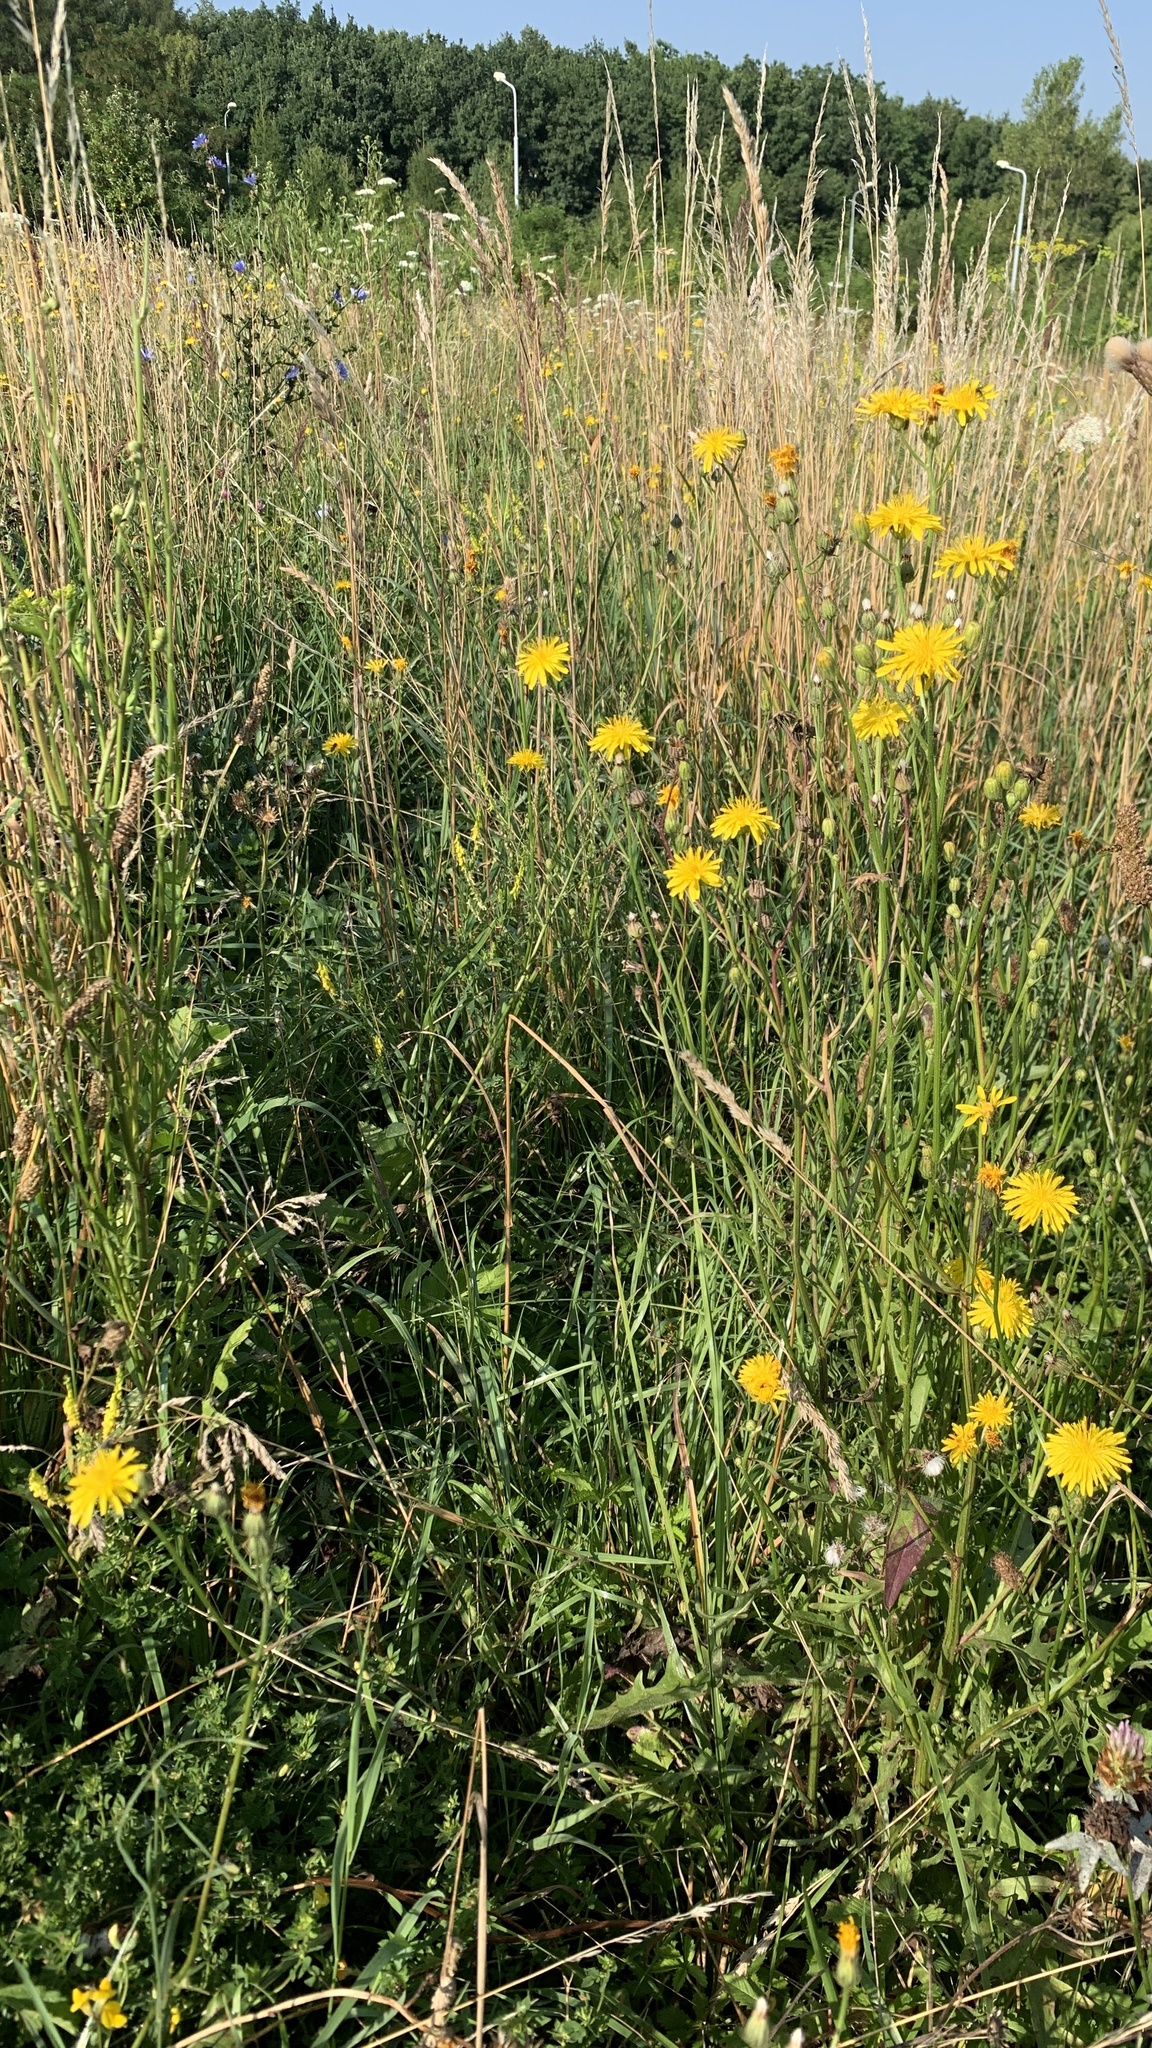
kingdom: Plantae
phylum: Tracheophyta
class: Magnoliopsida
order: Asterales
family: Asteraceae
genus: Crepis
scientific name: Crepis biennis
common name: Rough hawk's-beard
